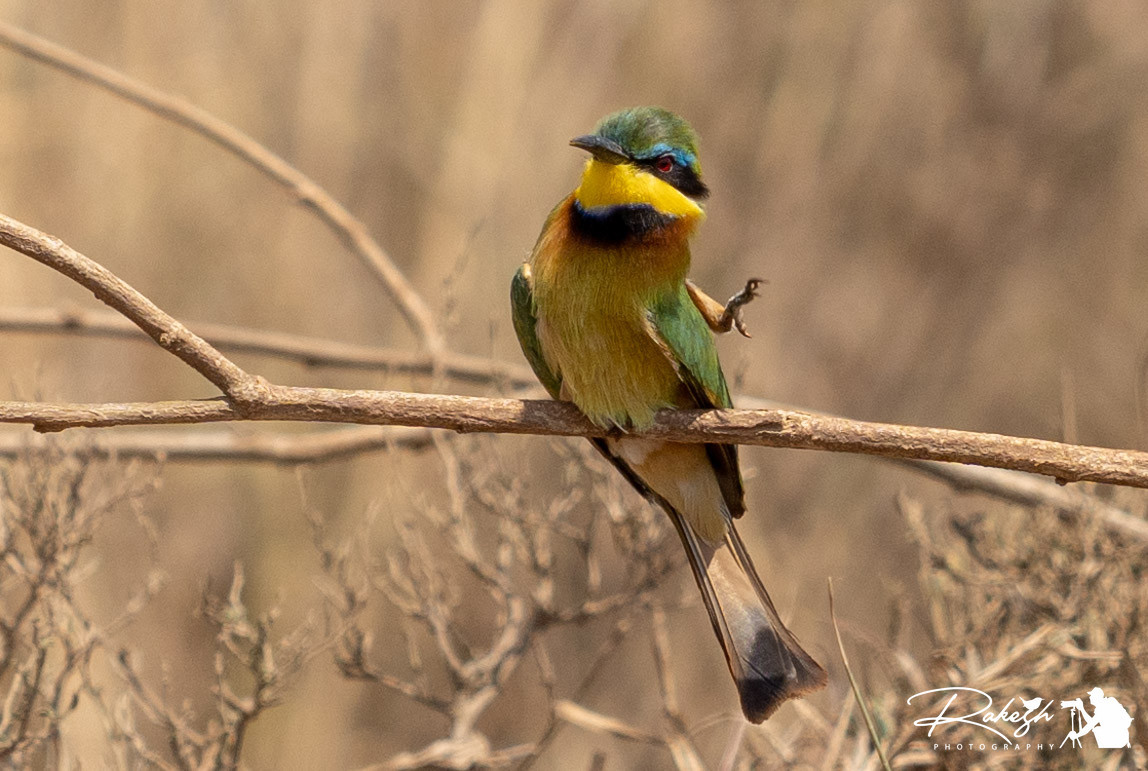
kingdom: Animalia
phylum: Chordata
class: Aves
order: Coraciiformes
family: Meropidae
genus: Merops
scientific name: Merops pusillus
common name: Little bee-eater
